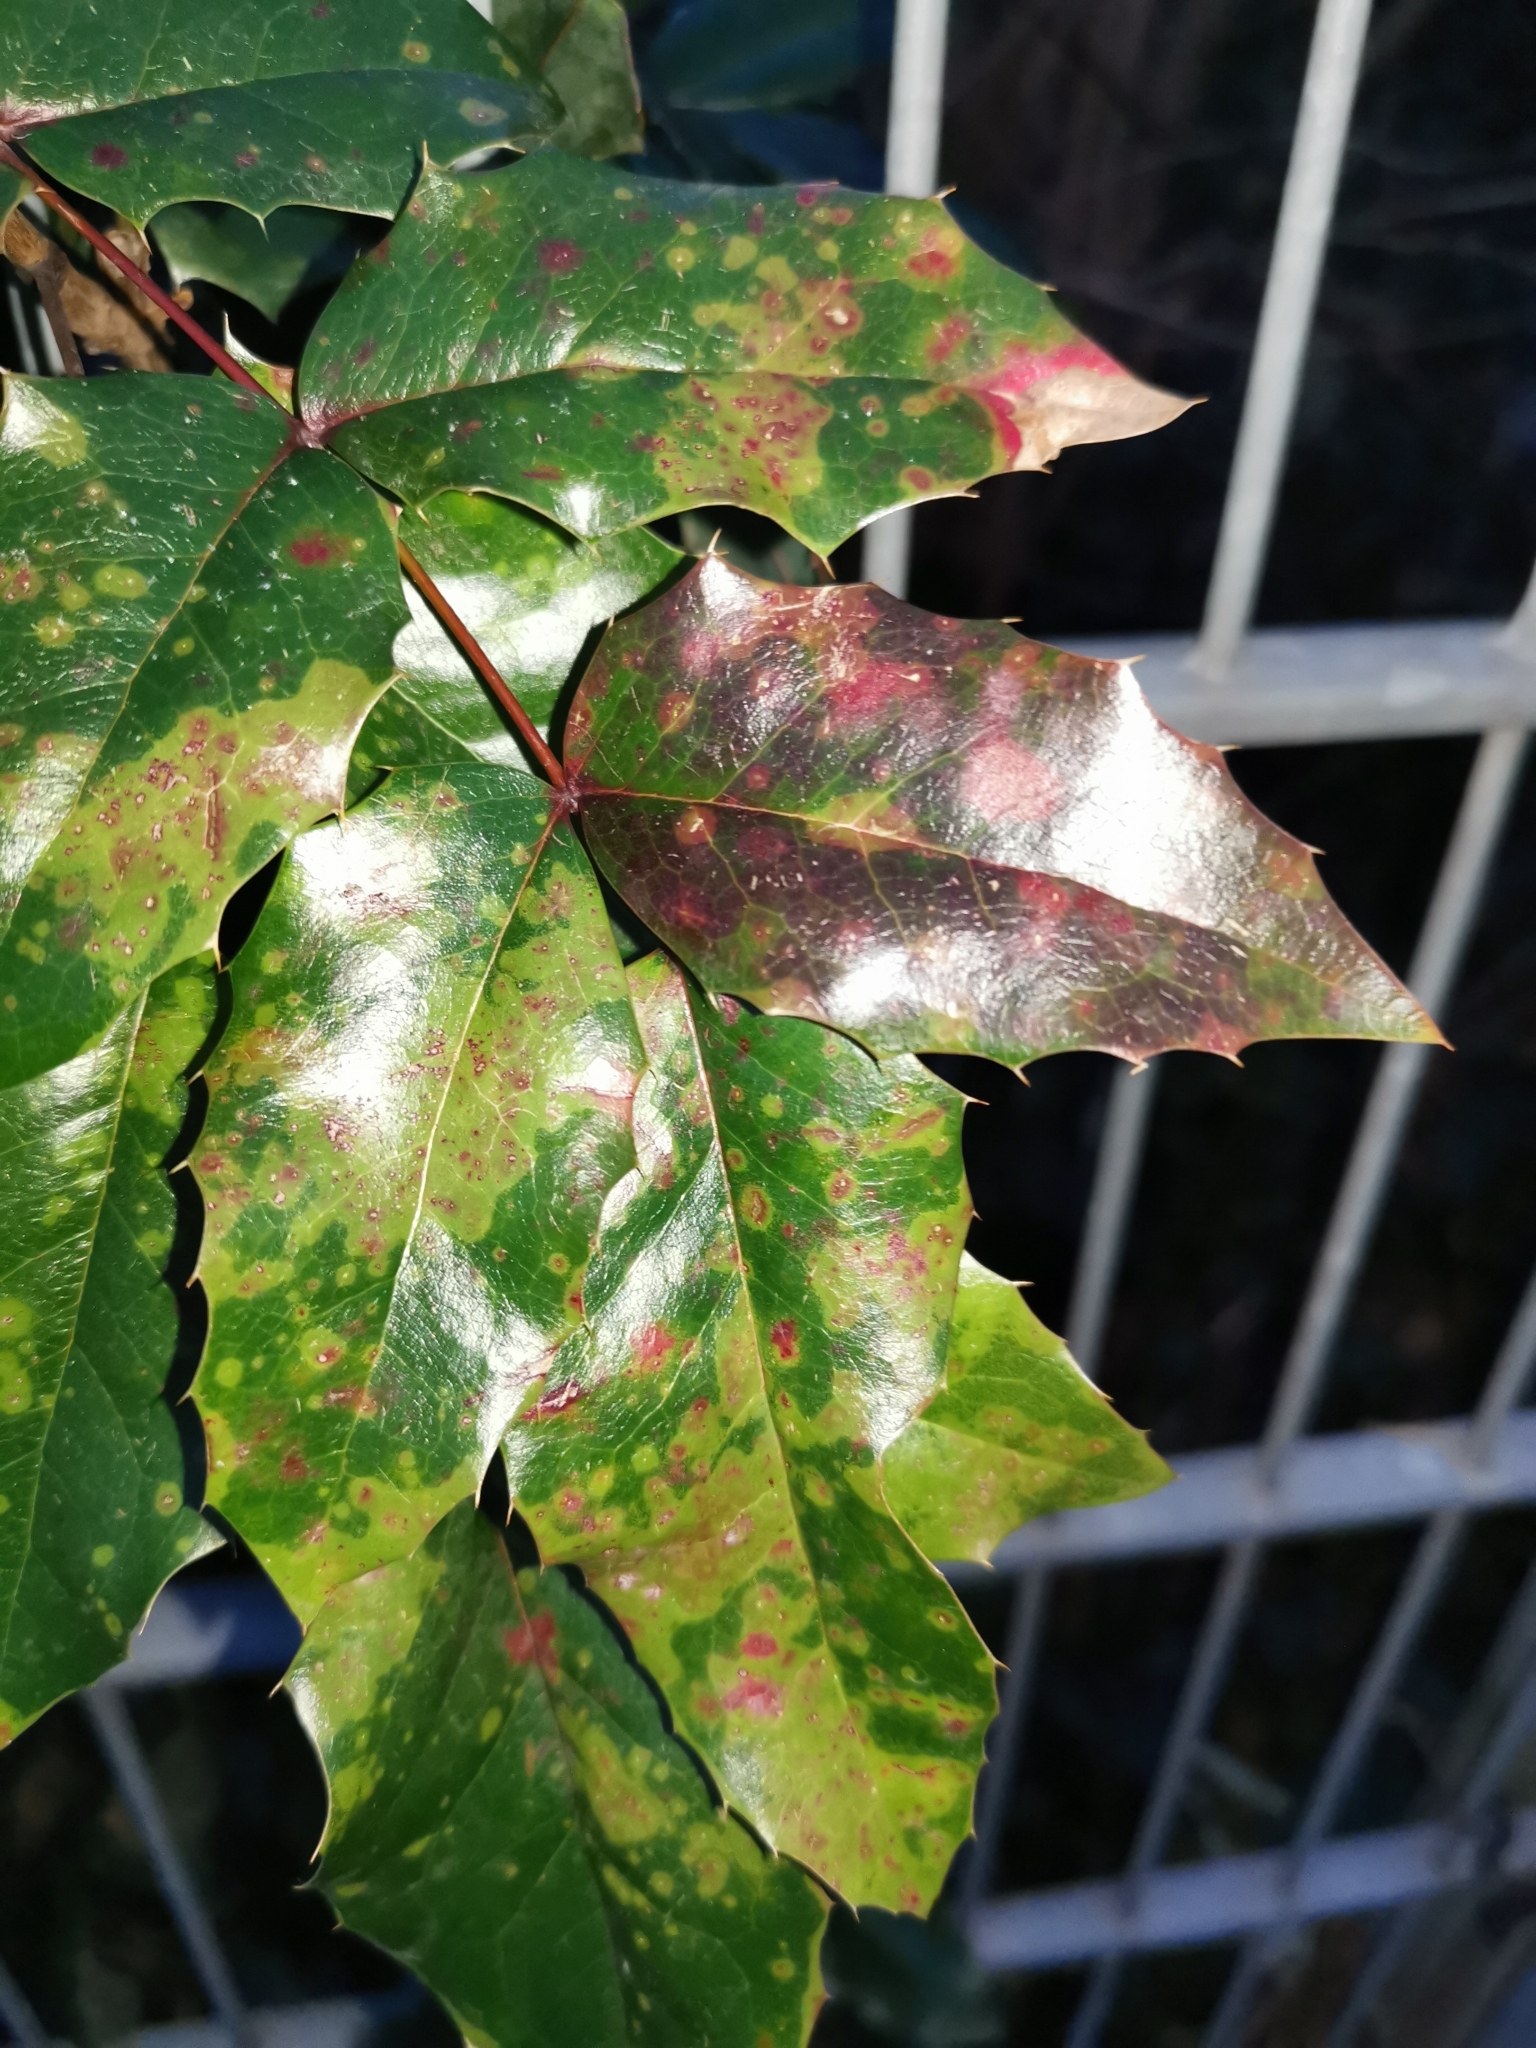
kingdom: Plantae
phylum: Tracheophyta
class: Magnoliopsida
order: Ranunculales
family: Berberidaceae
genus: Mahonia
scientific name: Mahonia aquifolium
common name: Oregon-grape
